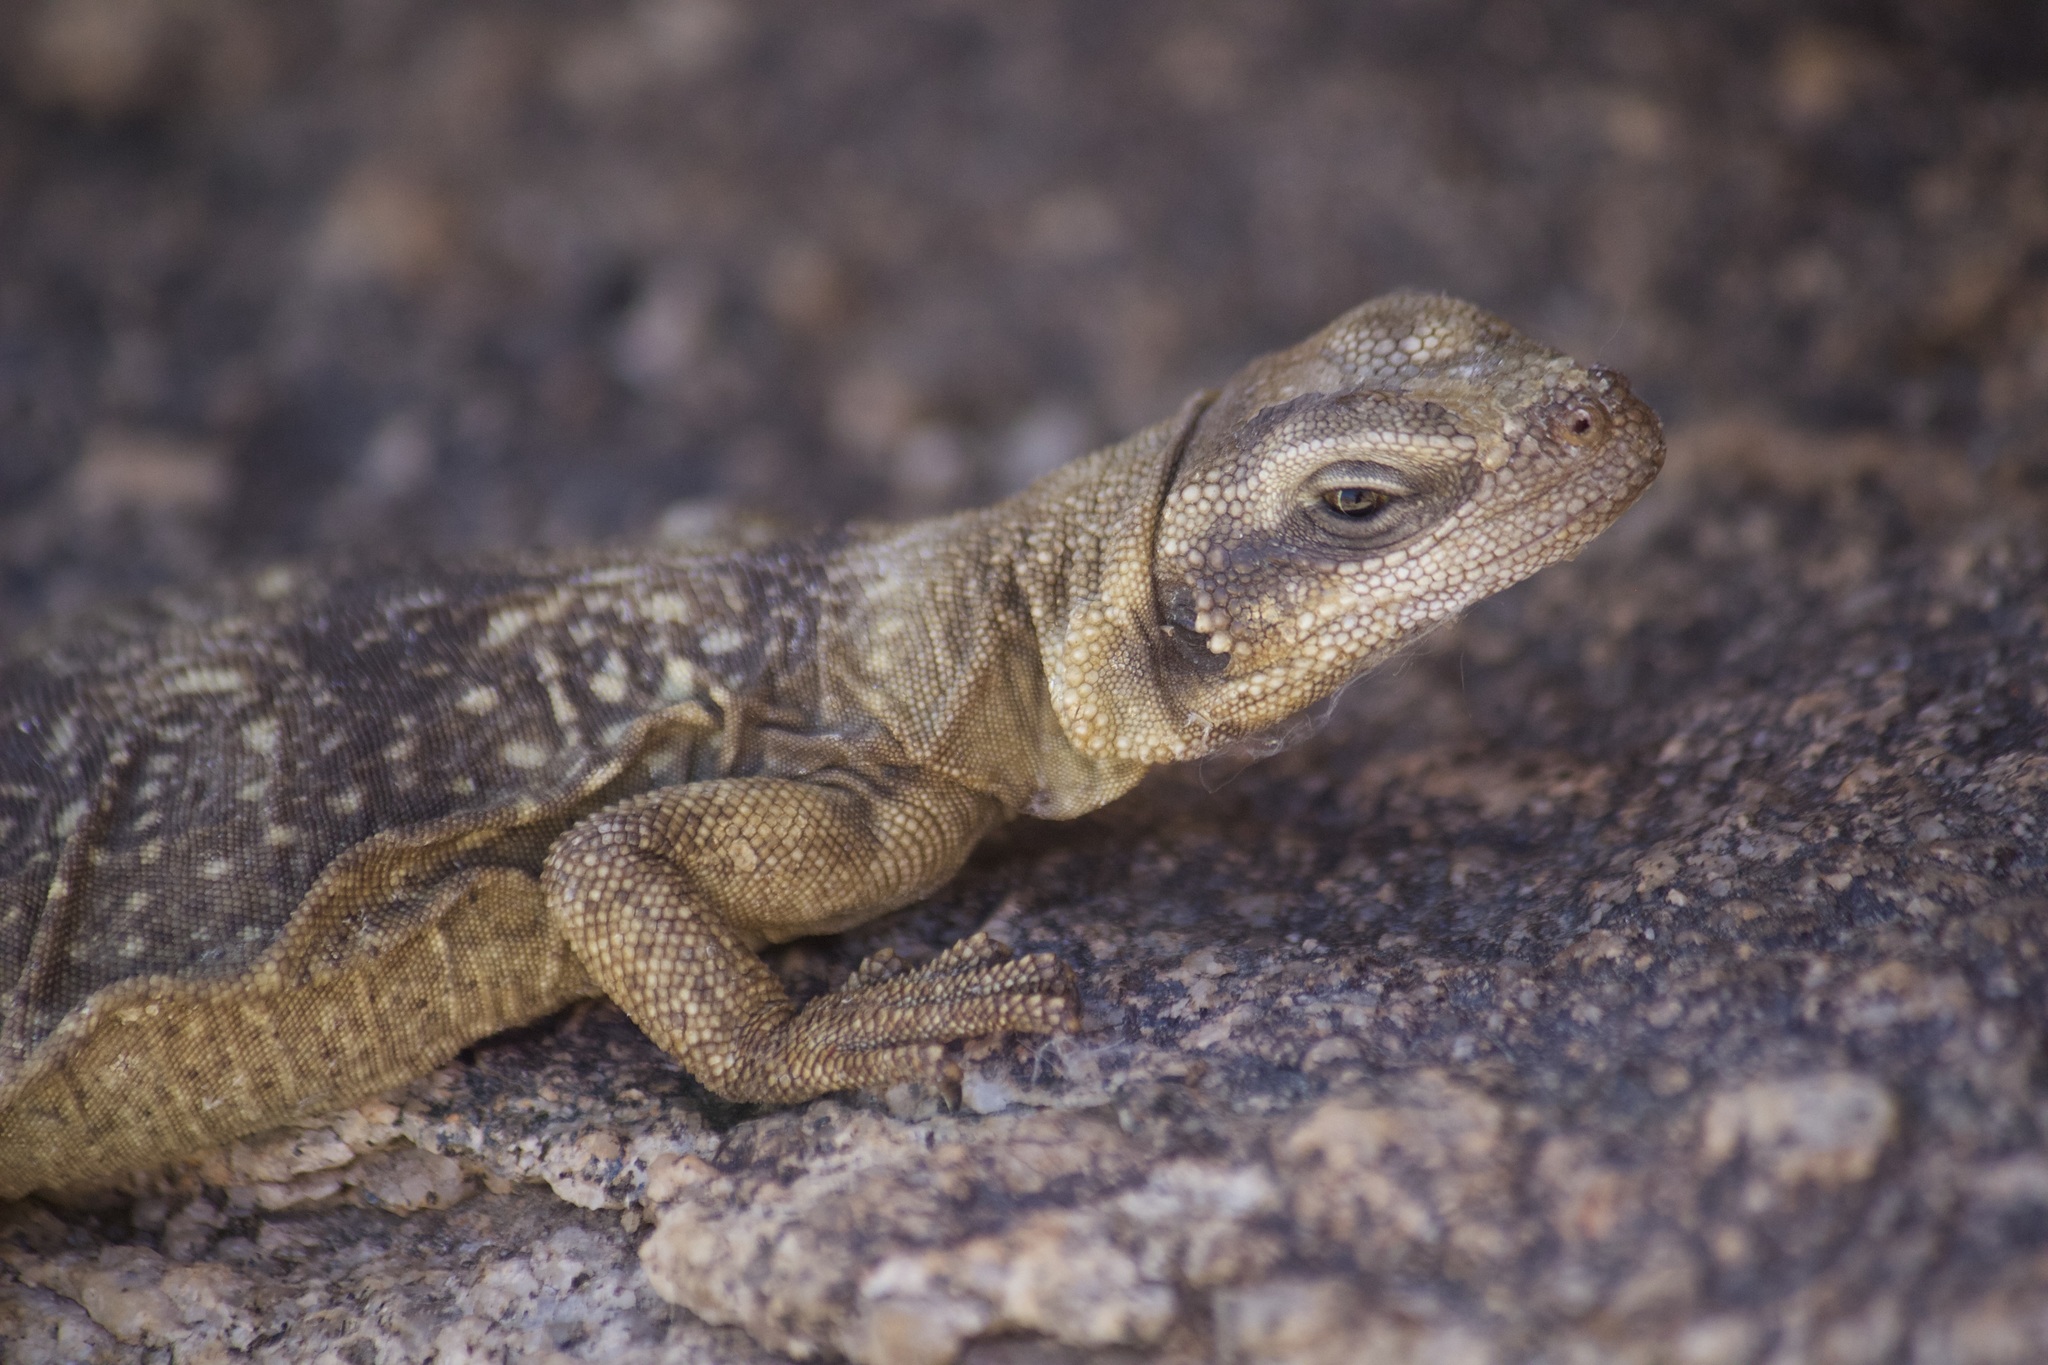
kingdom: Animalia
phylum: Chordata
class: Squamata
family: Iguanidae
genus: Sauromalus
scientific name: Sauromalus ater
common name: Northern chuckwalla
